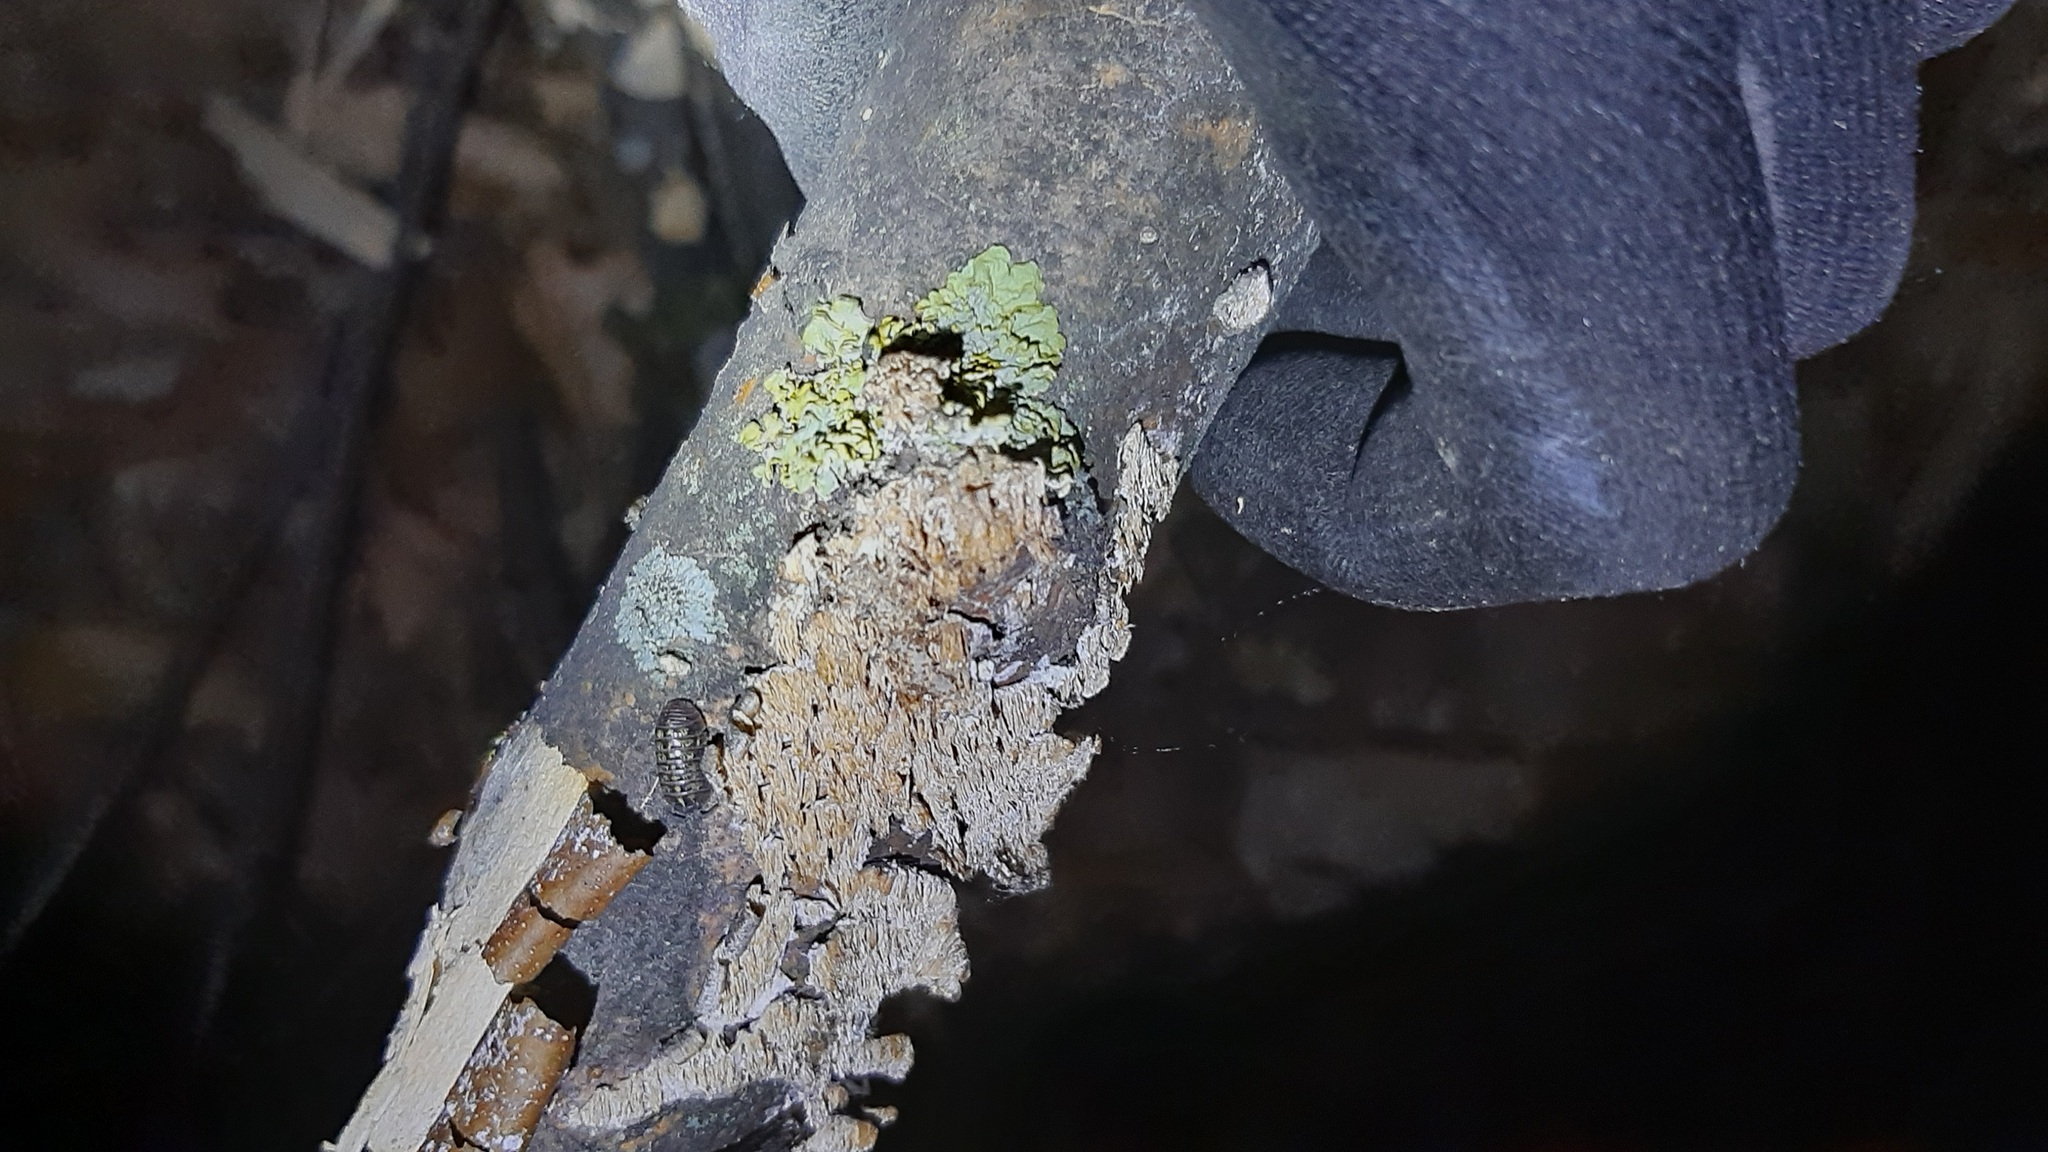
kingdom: Fungi
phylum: Ascomycota
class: Lecanoromycetes
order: Teloschistales
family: Teloschistaceae
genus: Xanthoria
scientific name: Xanthoria parietina
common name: Common orange lichen
